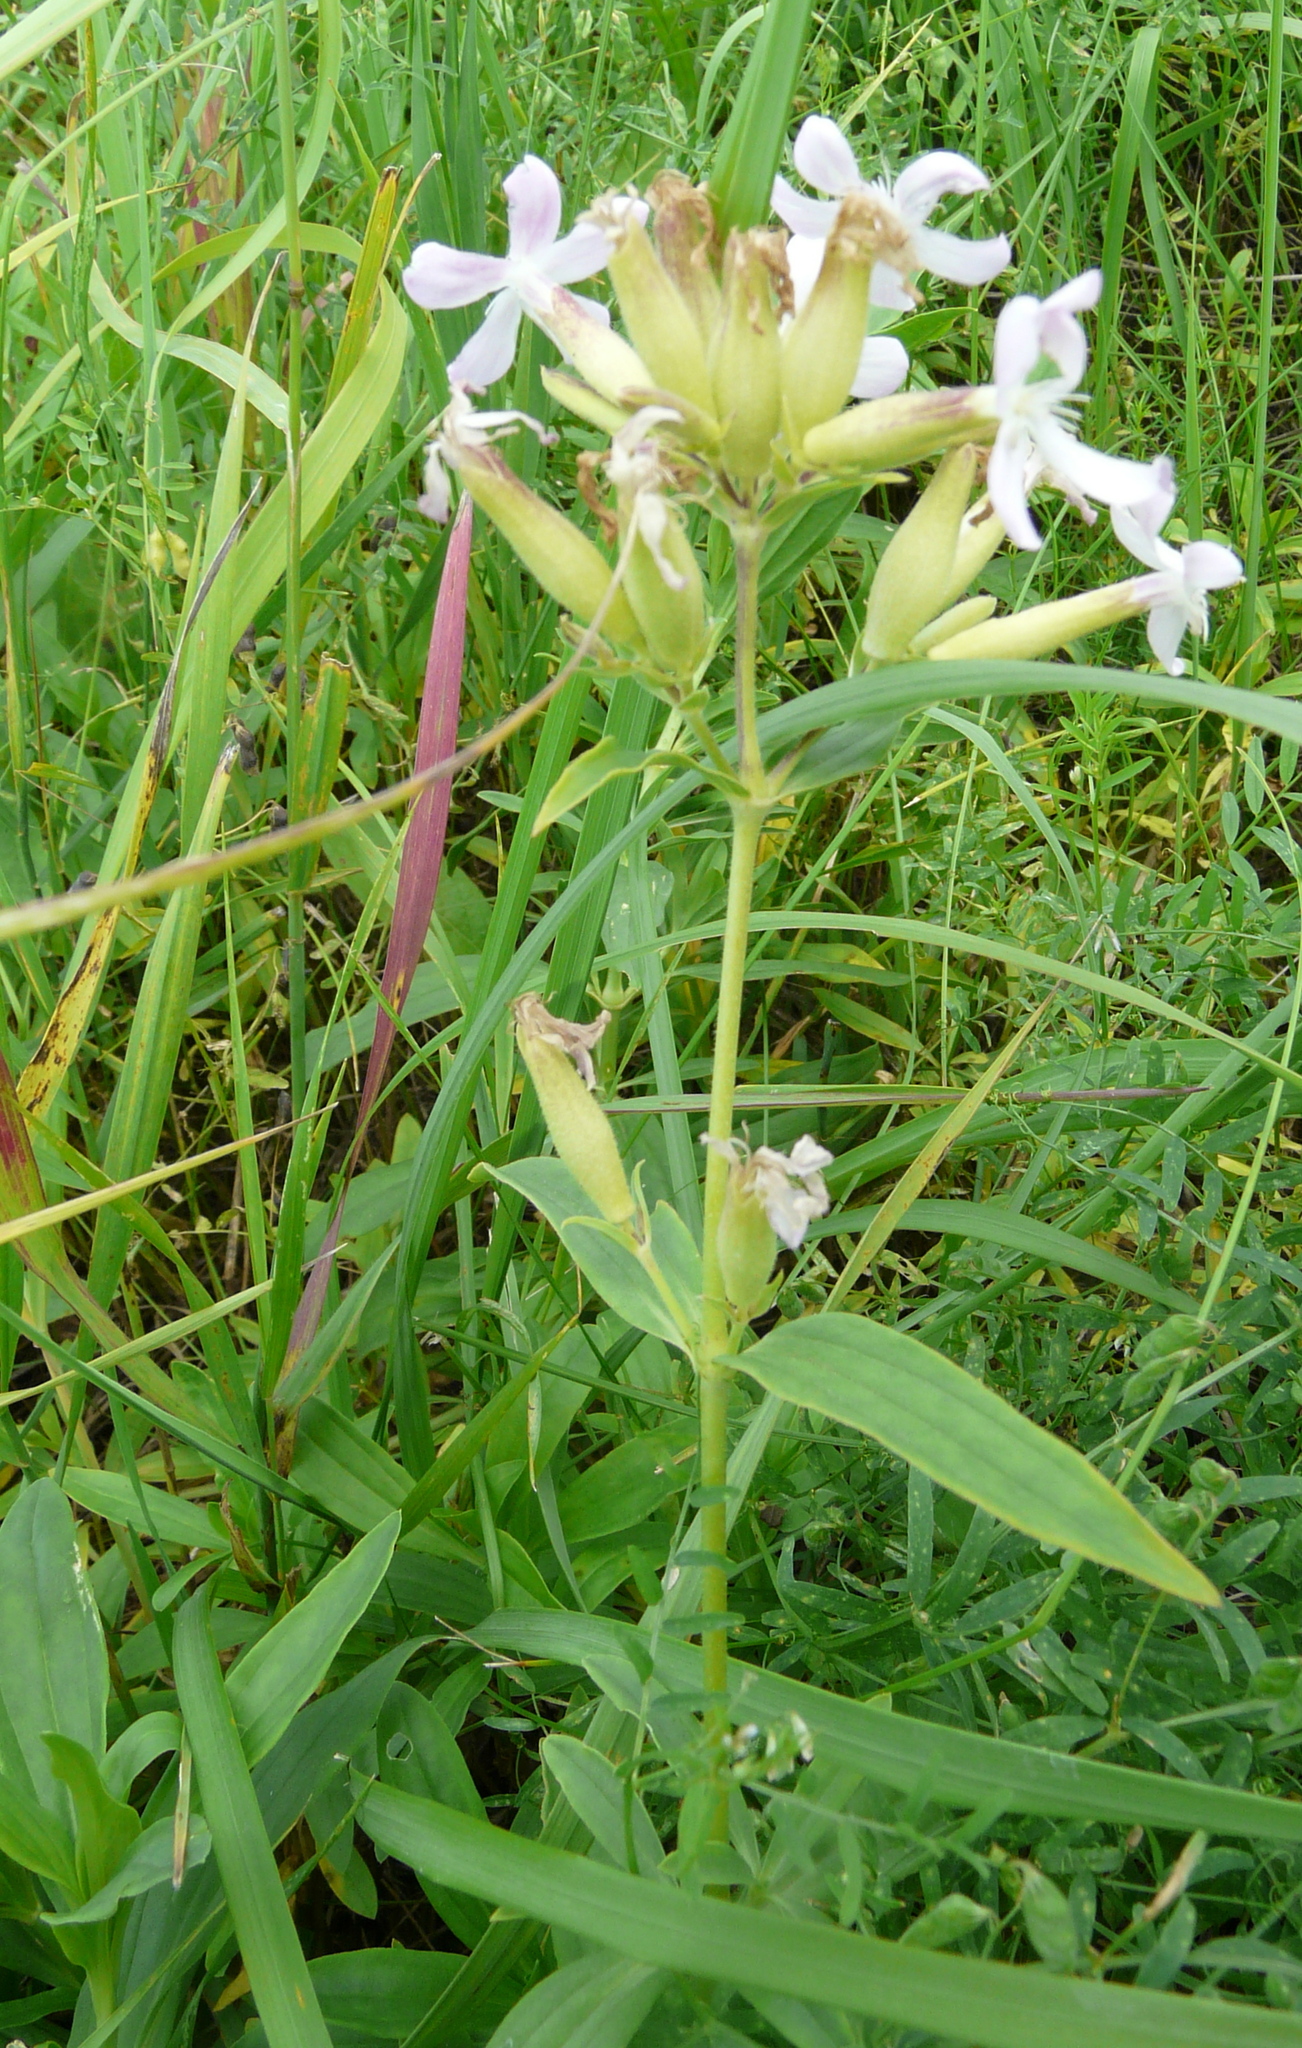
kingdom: Plantae
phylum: Tracheophyta
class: Magnoliopsida
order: Caryophyllales
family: Caryophyllaceae
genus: Saponaria
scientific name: Saponaria officinalis
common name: Soapwort
